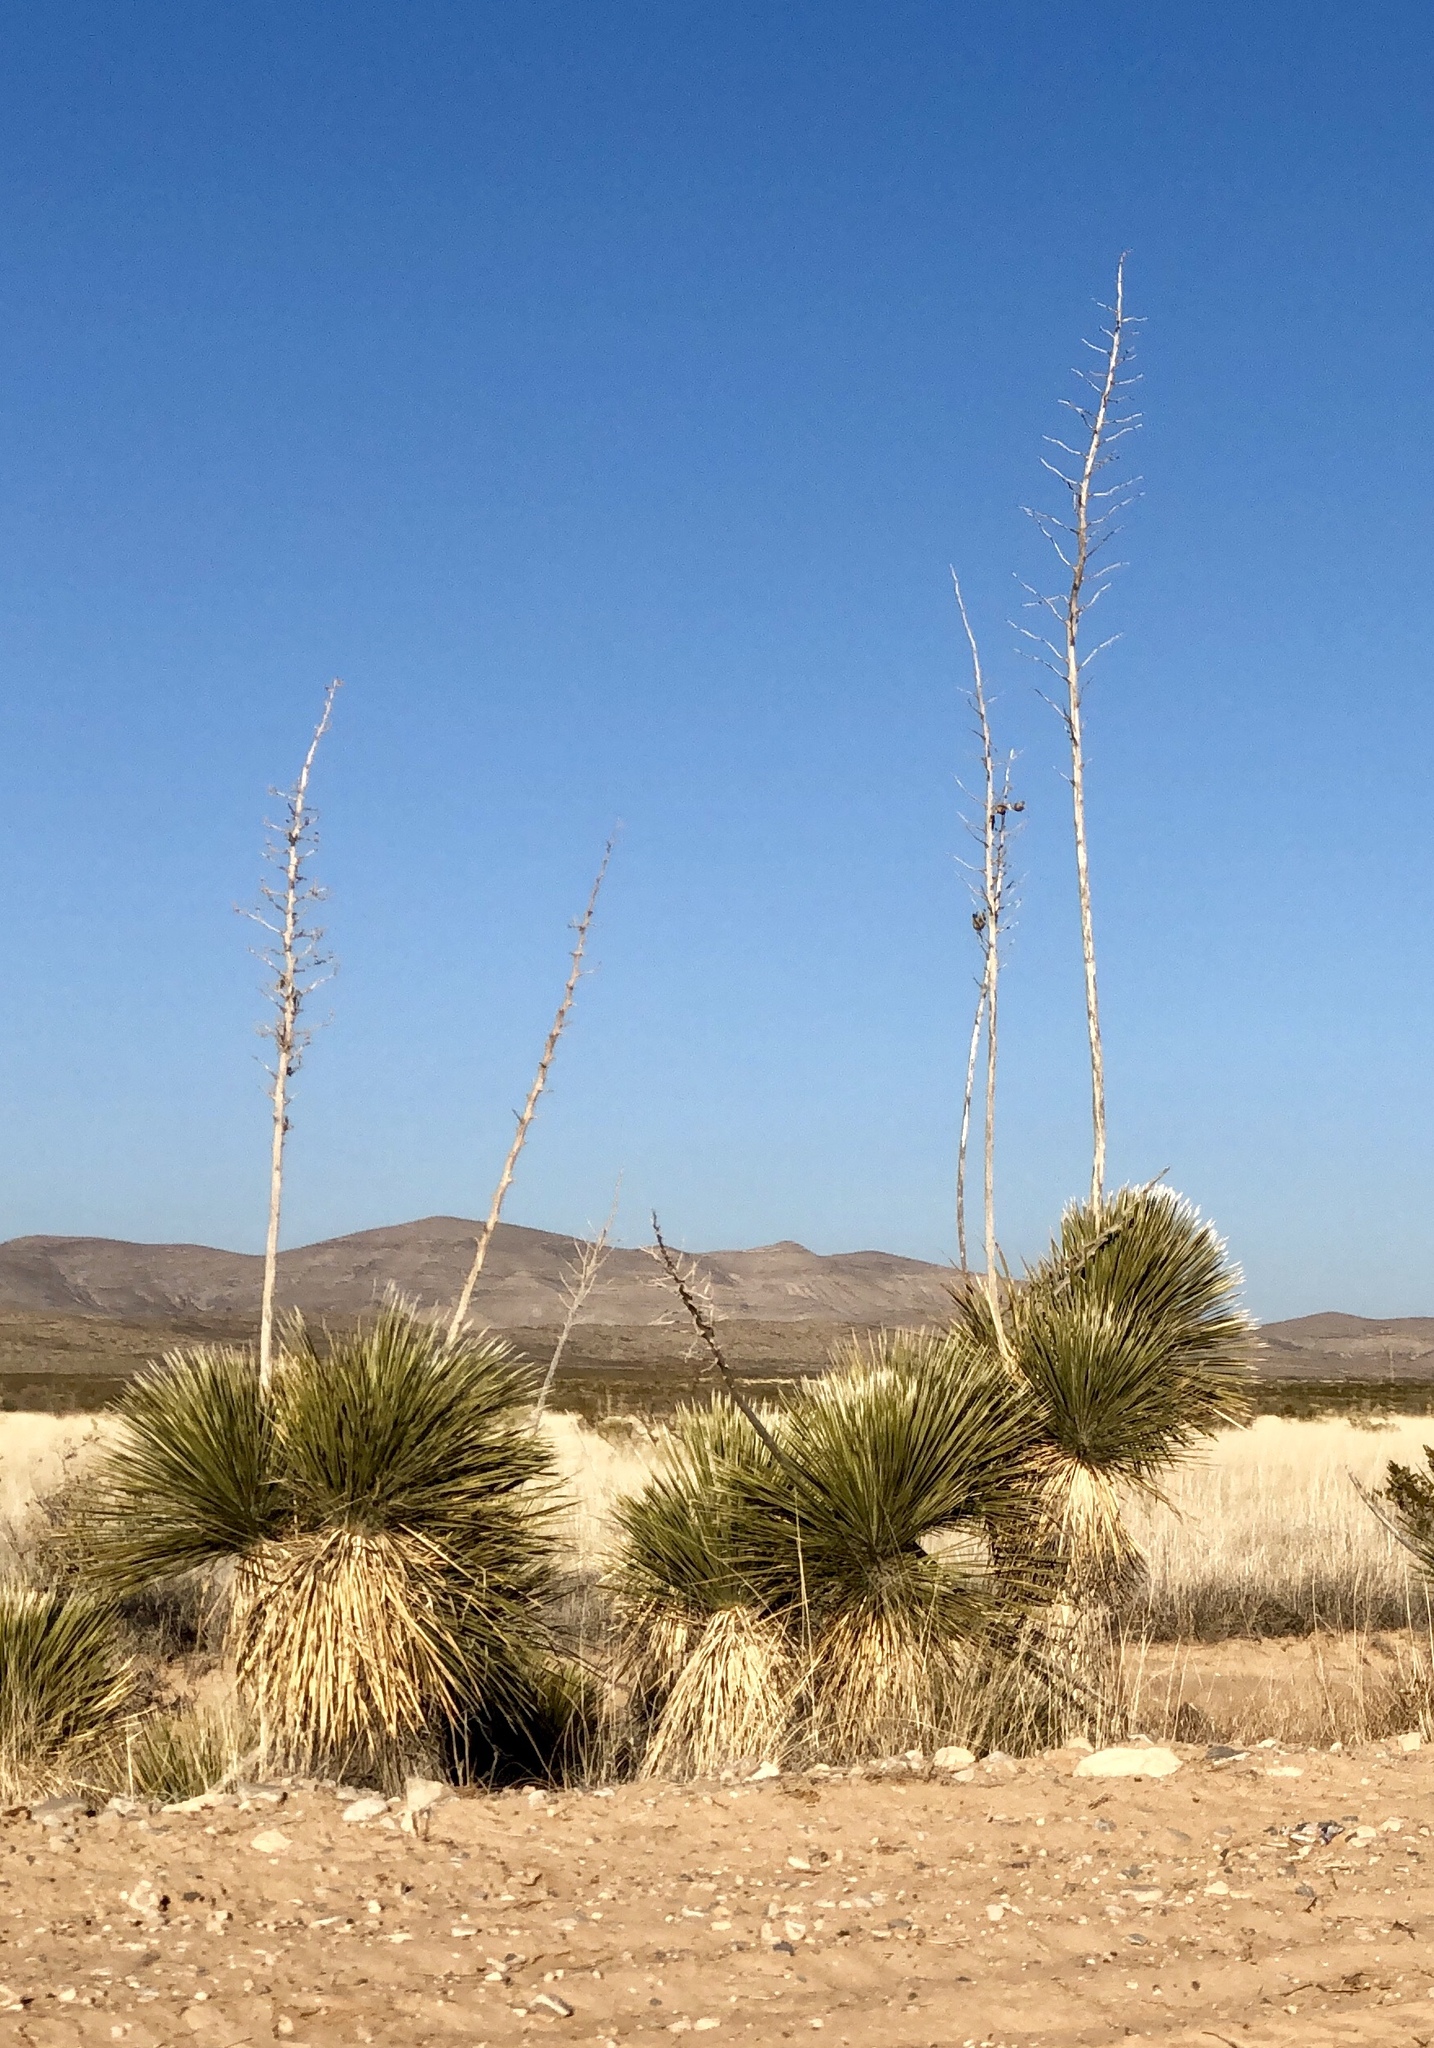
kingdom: Plantae
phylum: Tracheophyta
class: Liliopsida
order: Asparagales
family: Asparagaceae
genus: Yucca
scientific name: Yucca elata
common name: Palmella
